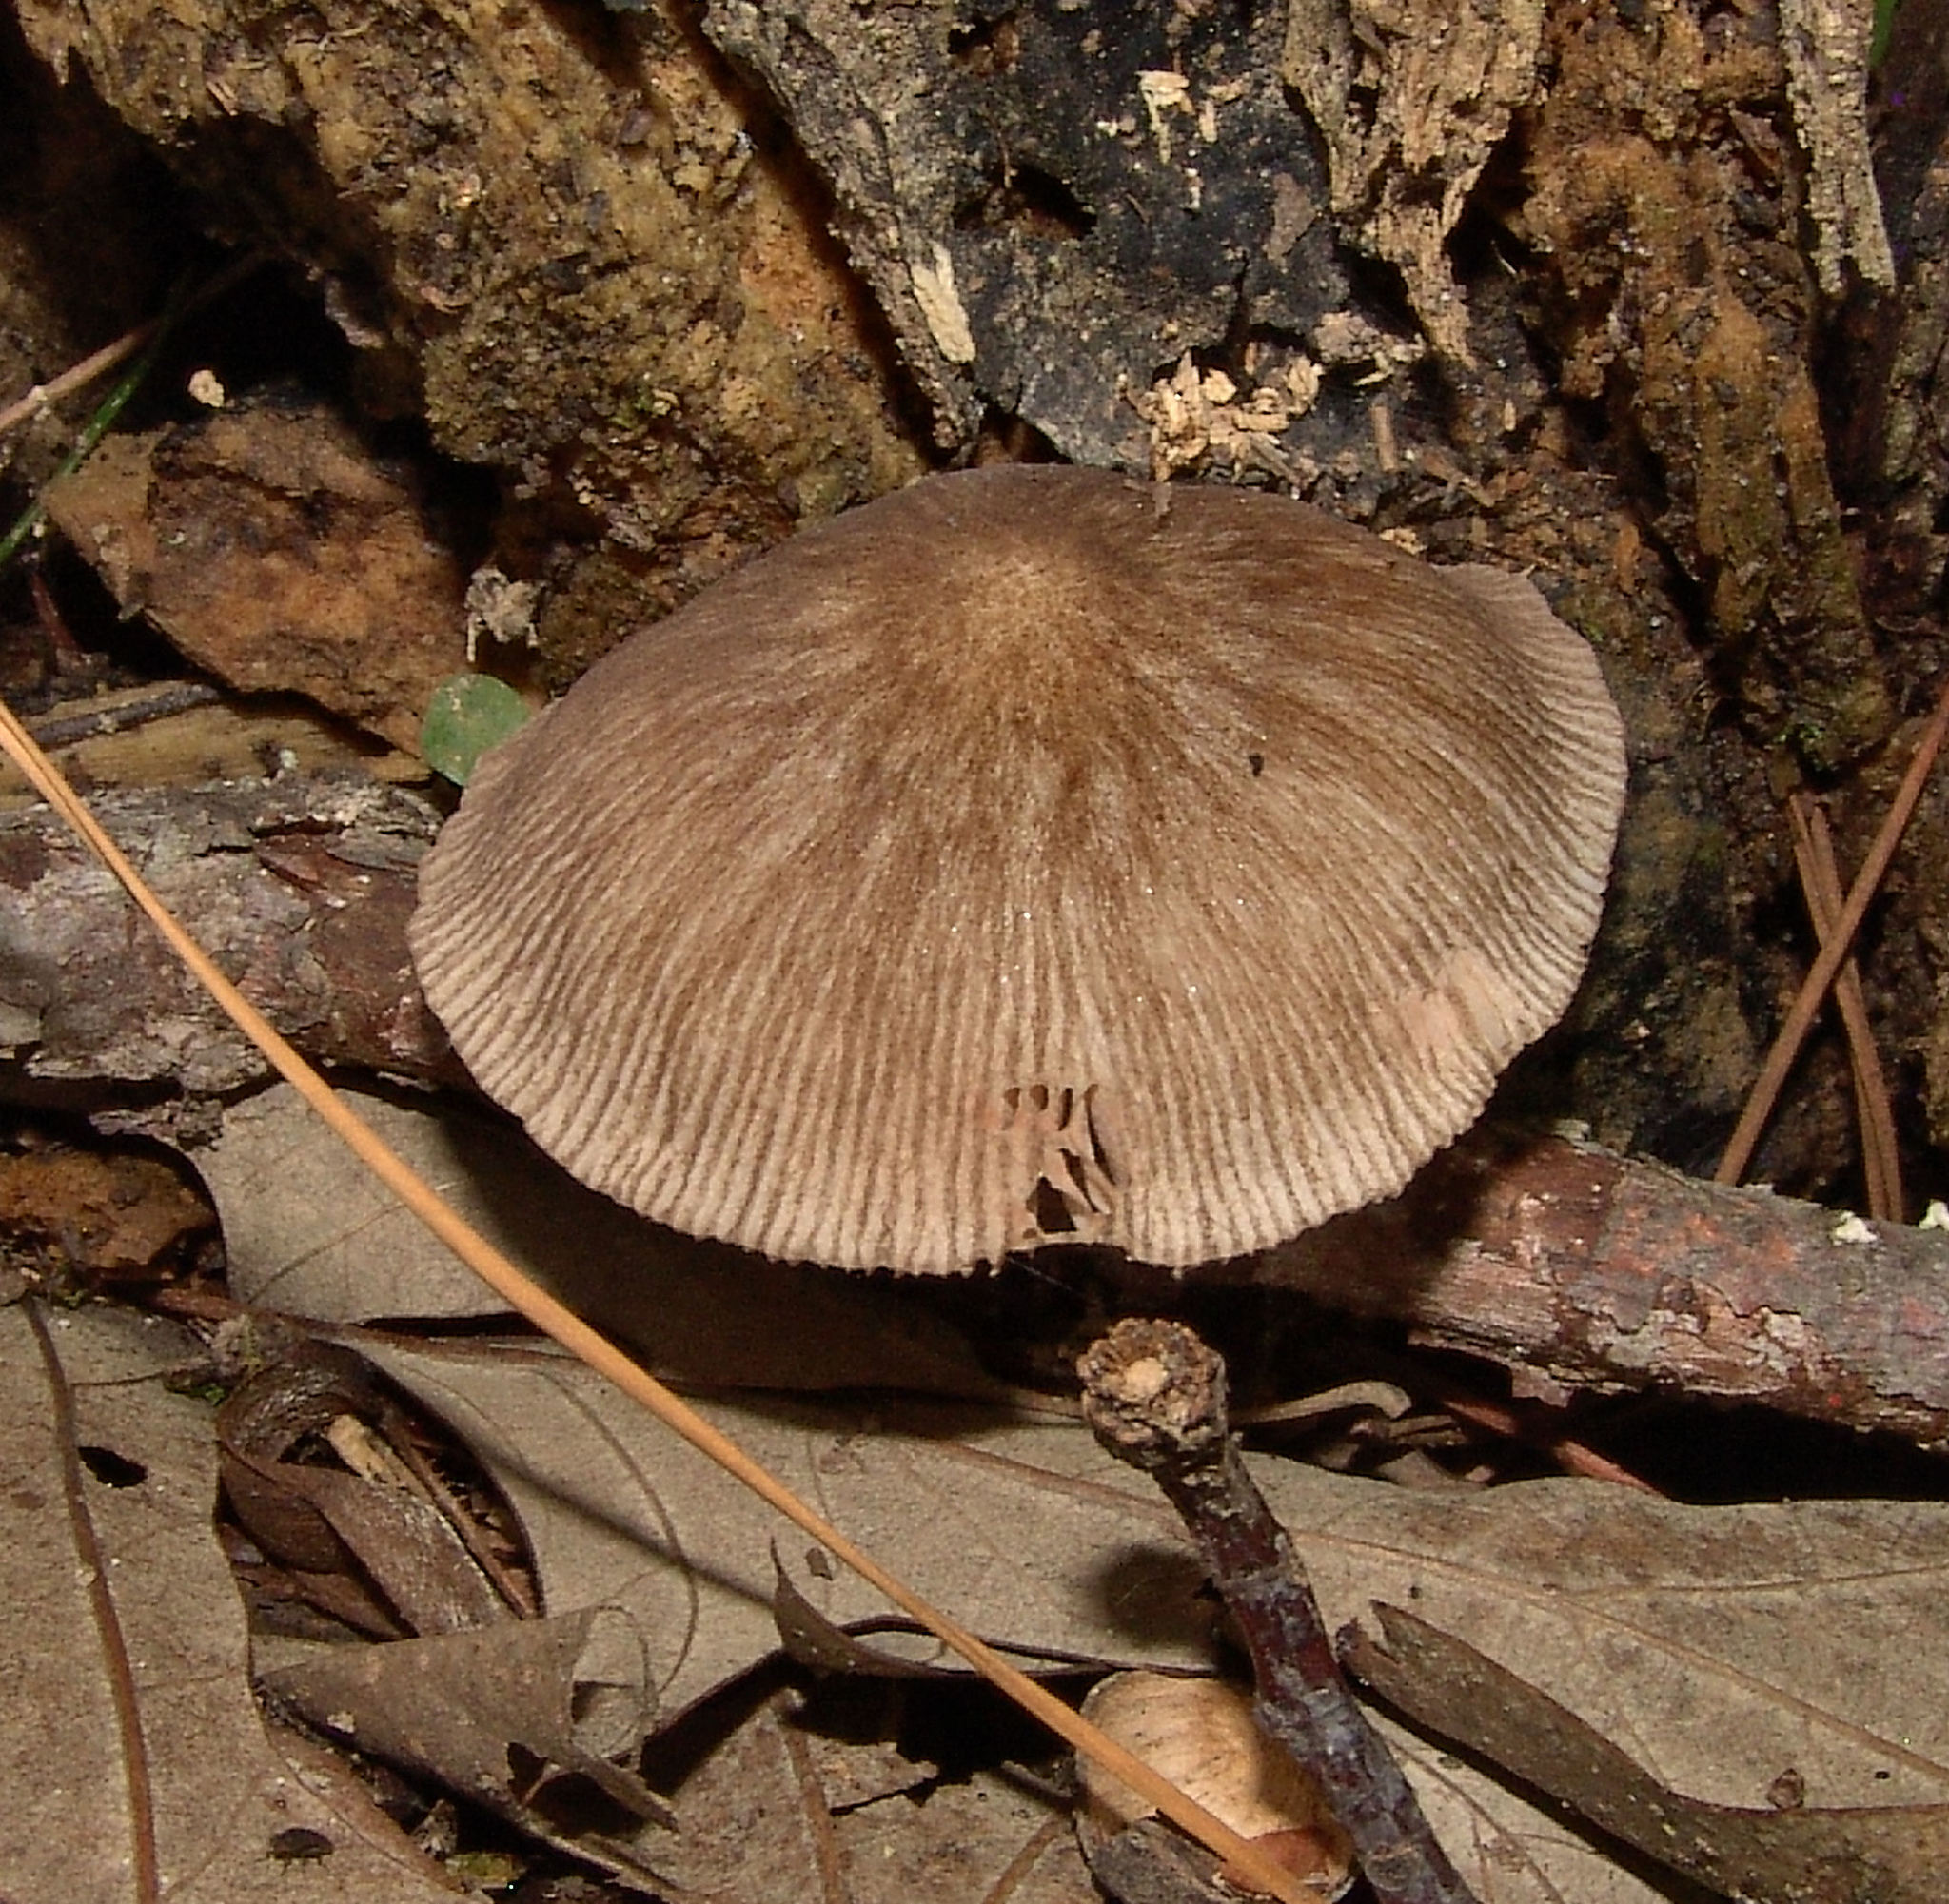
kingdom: Fungi
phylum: Basidiomycota
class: Agaricomycetes
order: Agaricales
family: Pluteaceae
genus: Pluteus
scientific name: Pluteus longistriatus
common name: Pleated pluteus
